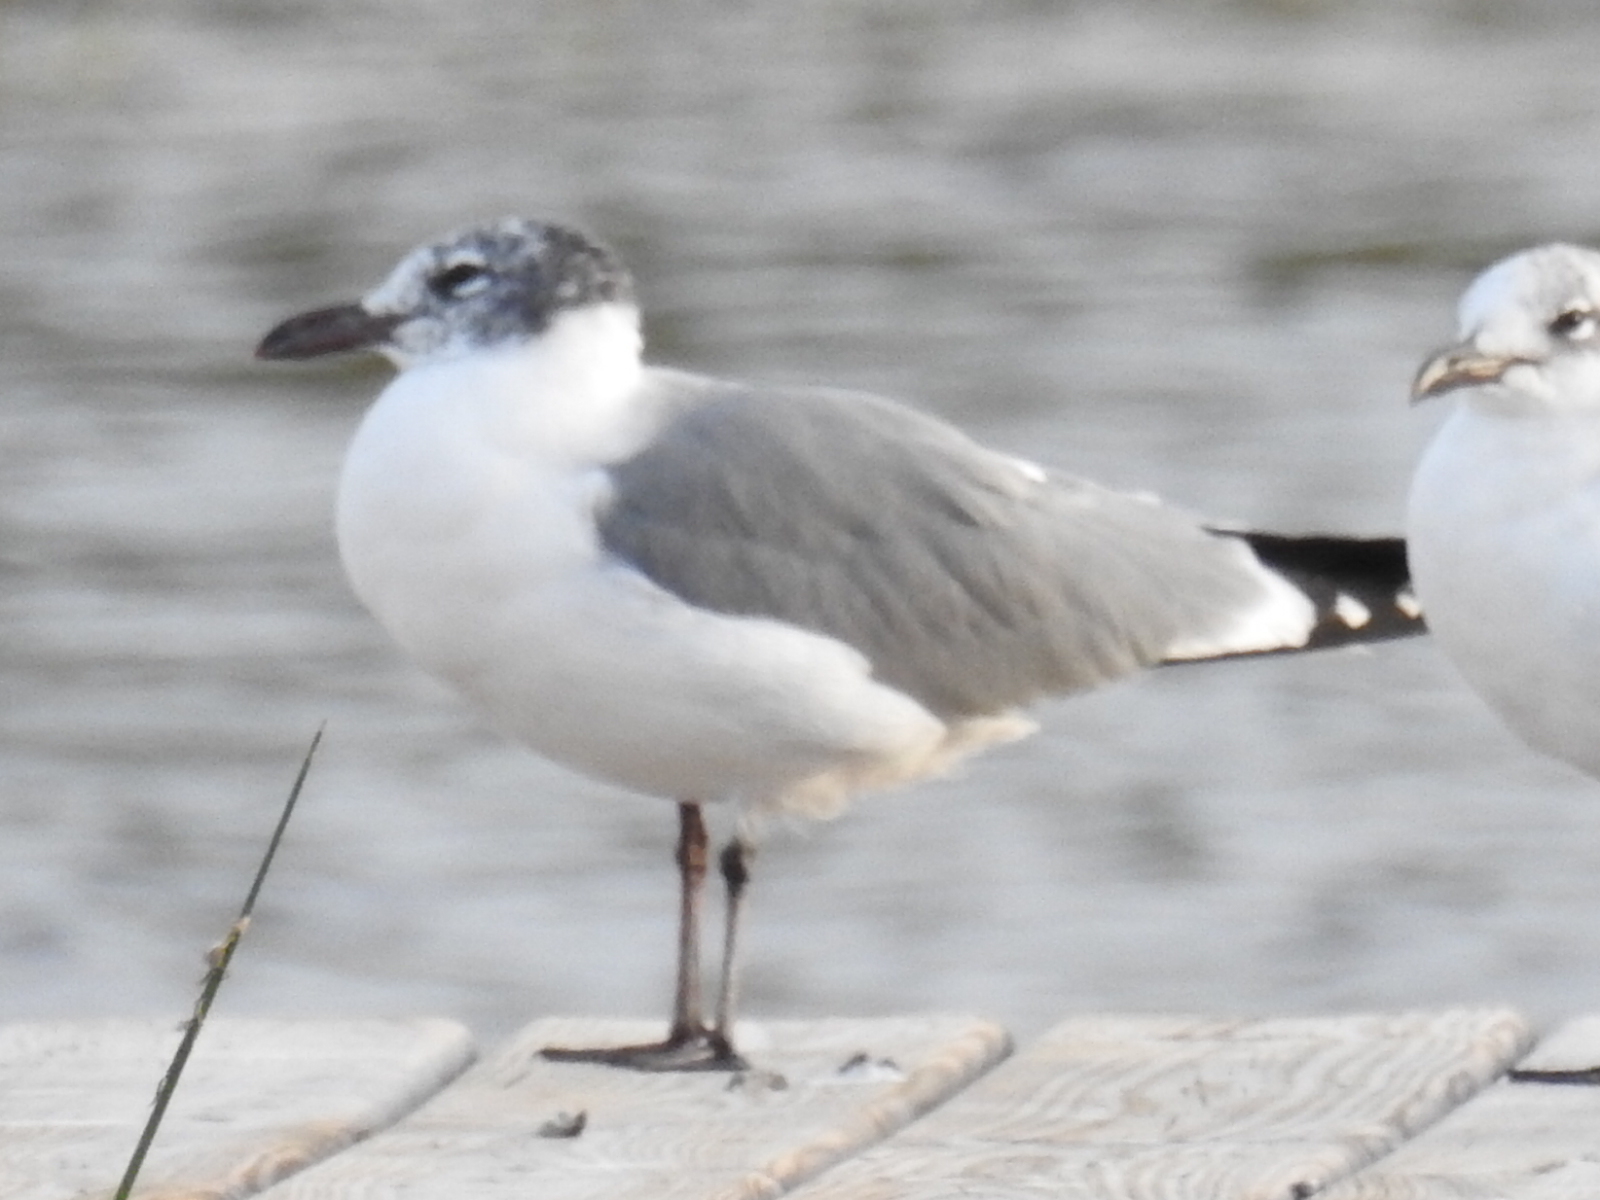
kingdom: Animalia
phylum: Chordata
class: Aves
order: Charadriiformes
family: Laridae
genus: Leucophaeus
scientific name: Leucophaeus atricilla
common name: Laughing gull
